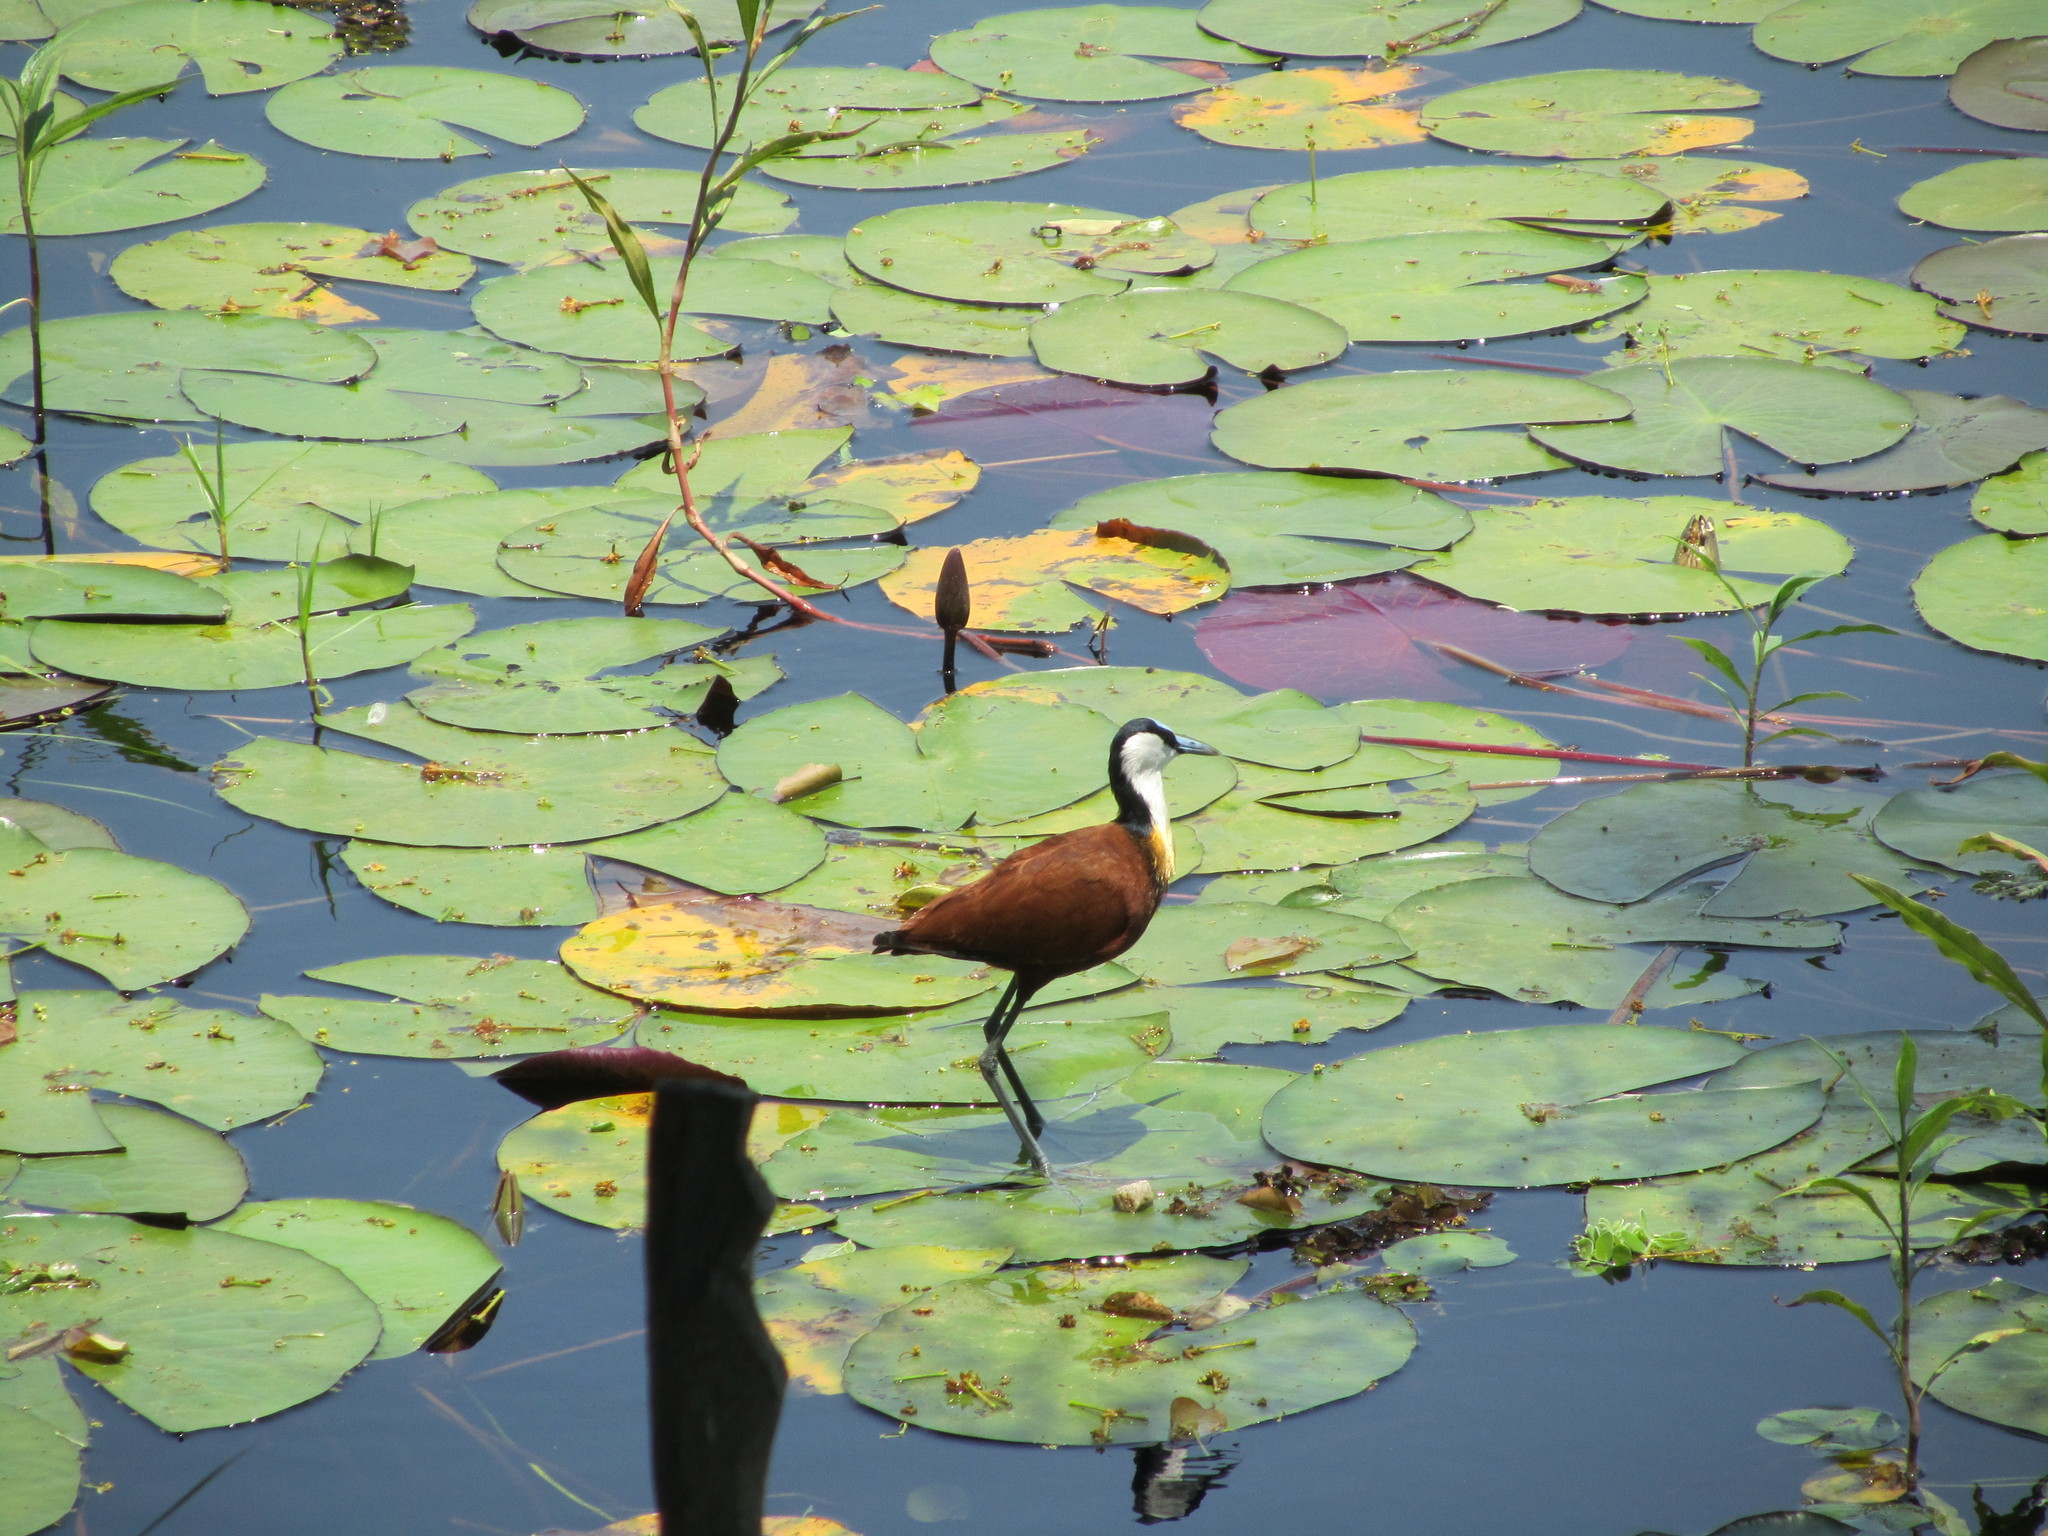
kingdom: Animalia
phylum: Chordata
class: Aves
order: Charadriiformes
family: Jacanidae
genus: Actophilornis
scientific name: Actophilornis africanus
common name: African jacana
